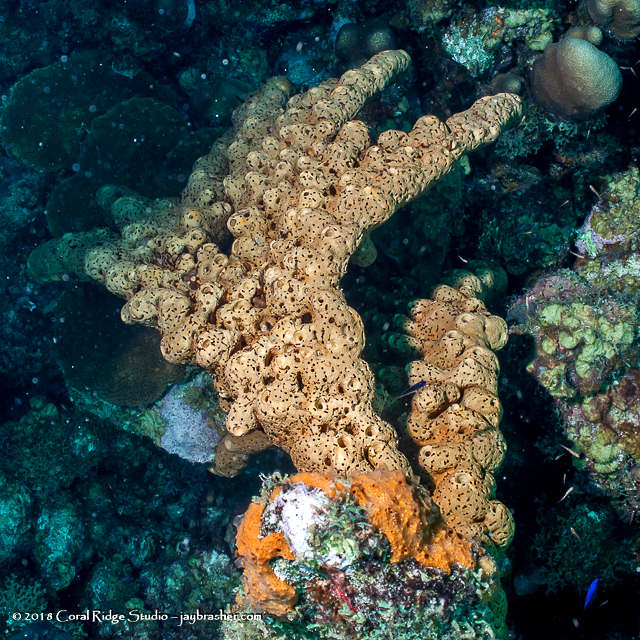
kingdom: Animalia
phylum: Porifera
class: Demospongiae
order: Agelasida
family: Agelasidae
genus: Agelas
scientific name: Agelas conifera
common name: Brown tube sponge
